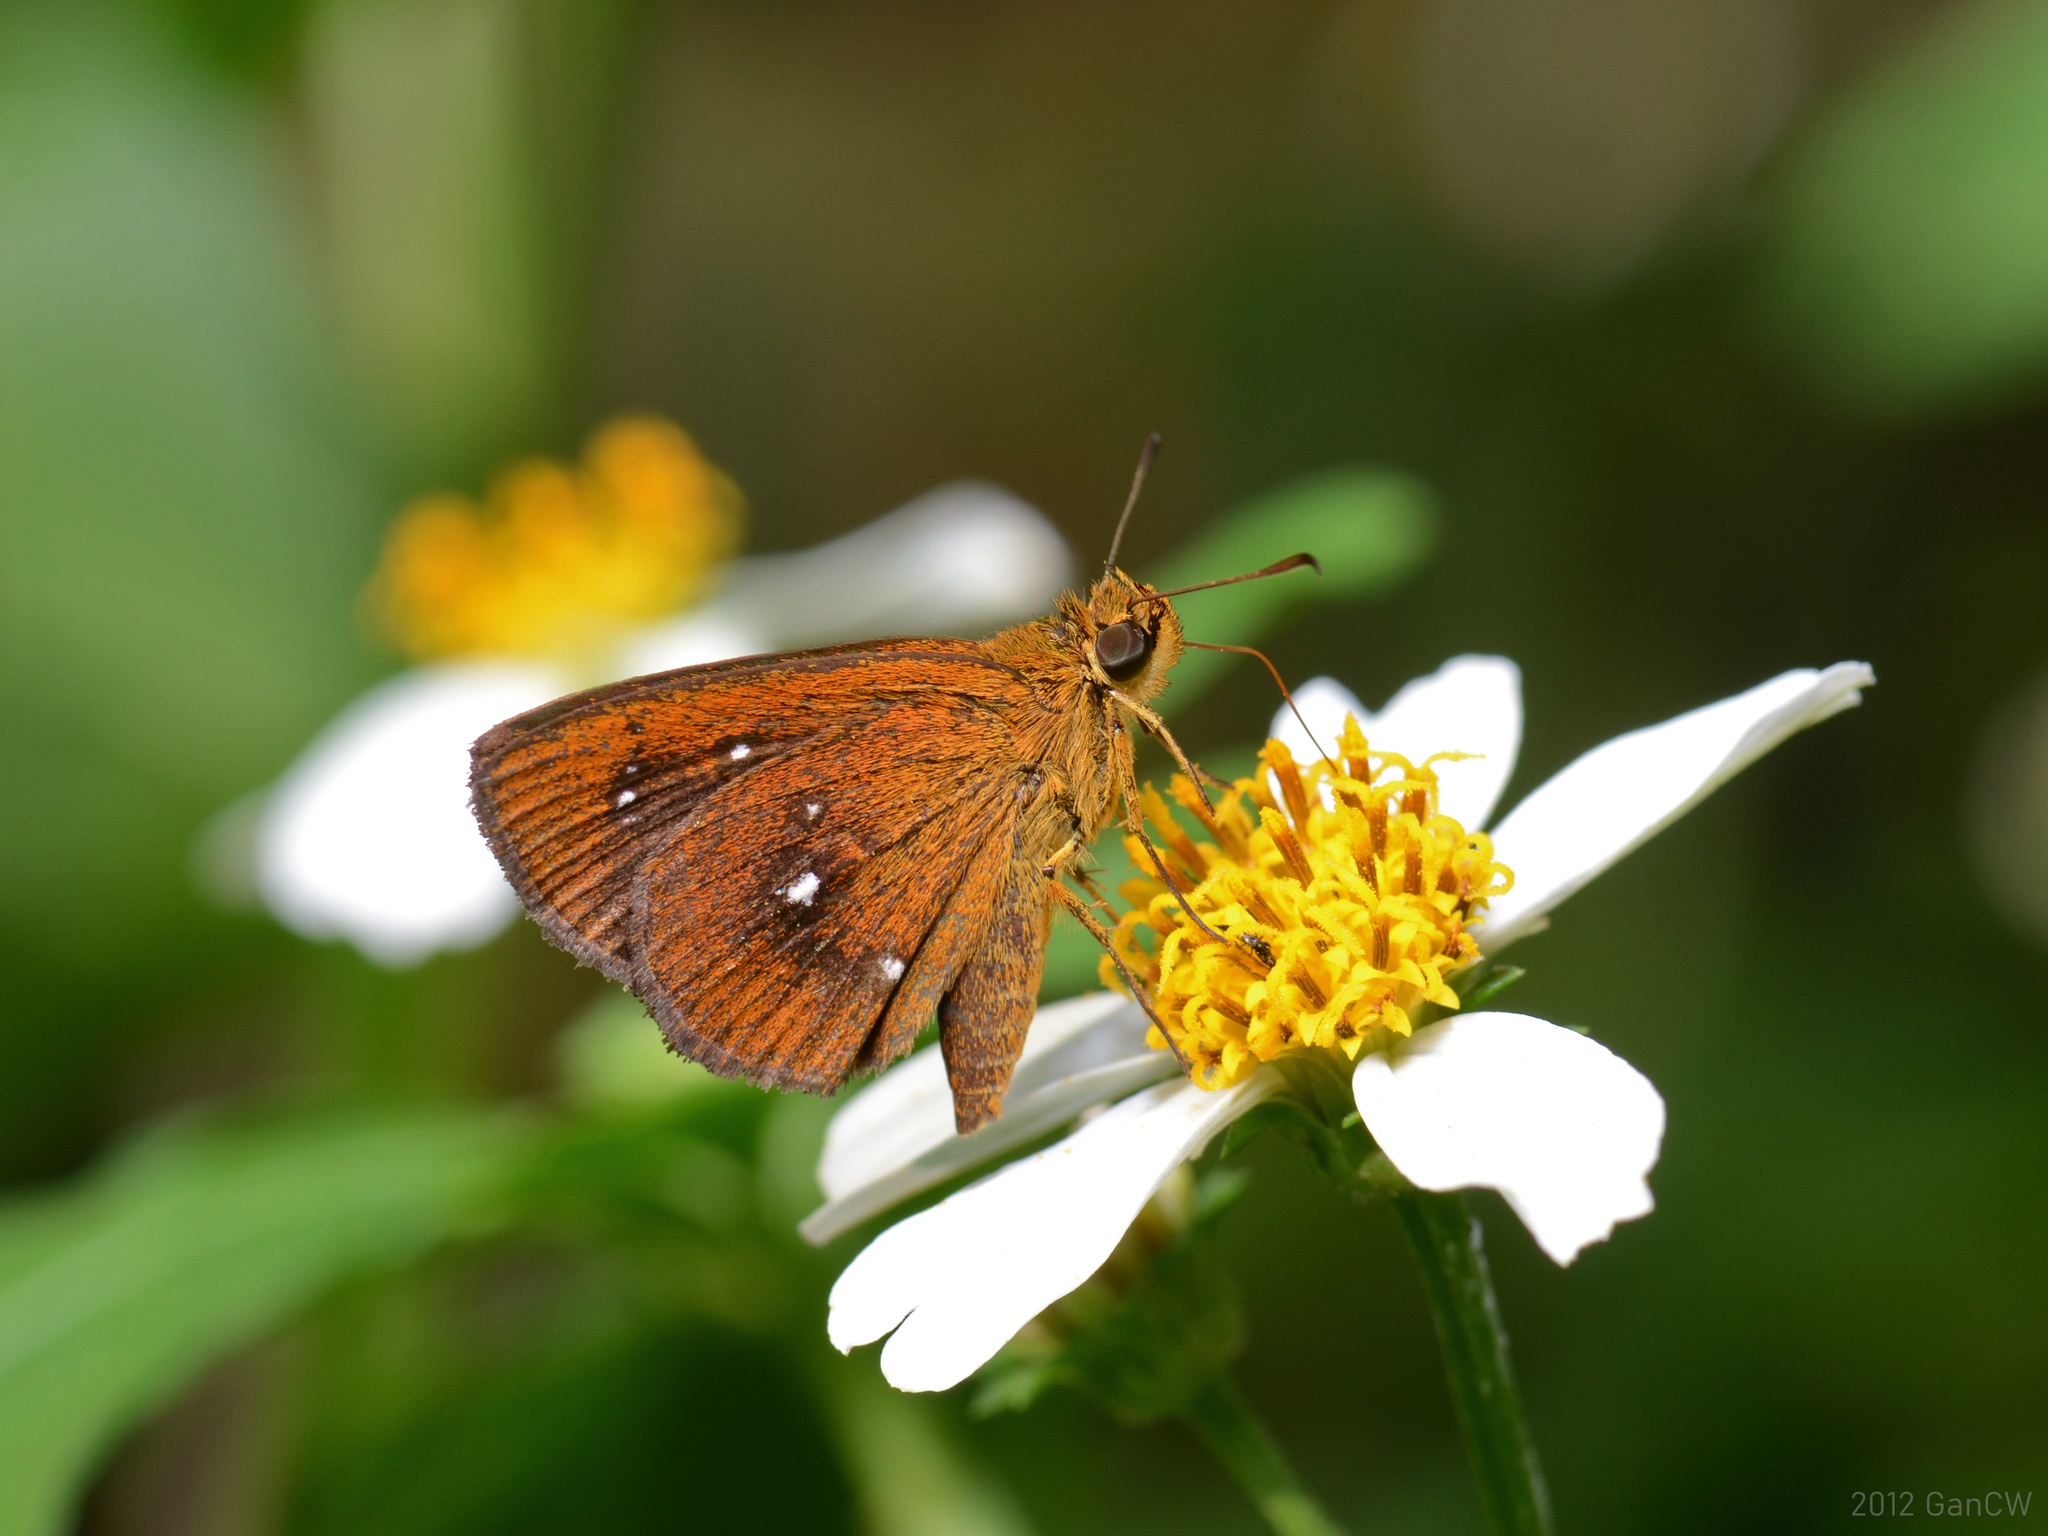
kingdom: Animalia
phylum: Arthropoda
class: Insecta
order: Lepidoptera
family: Hesperiidae
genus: Iambrix
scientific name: Iambrix salsala
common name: Chestnut bob
